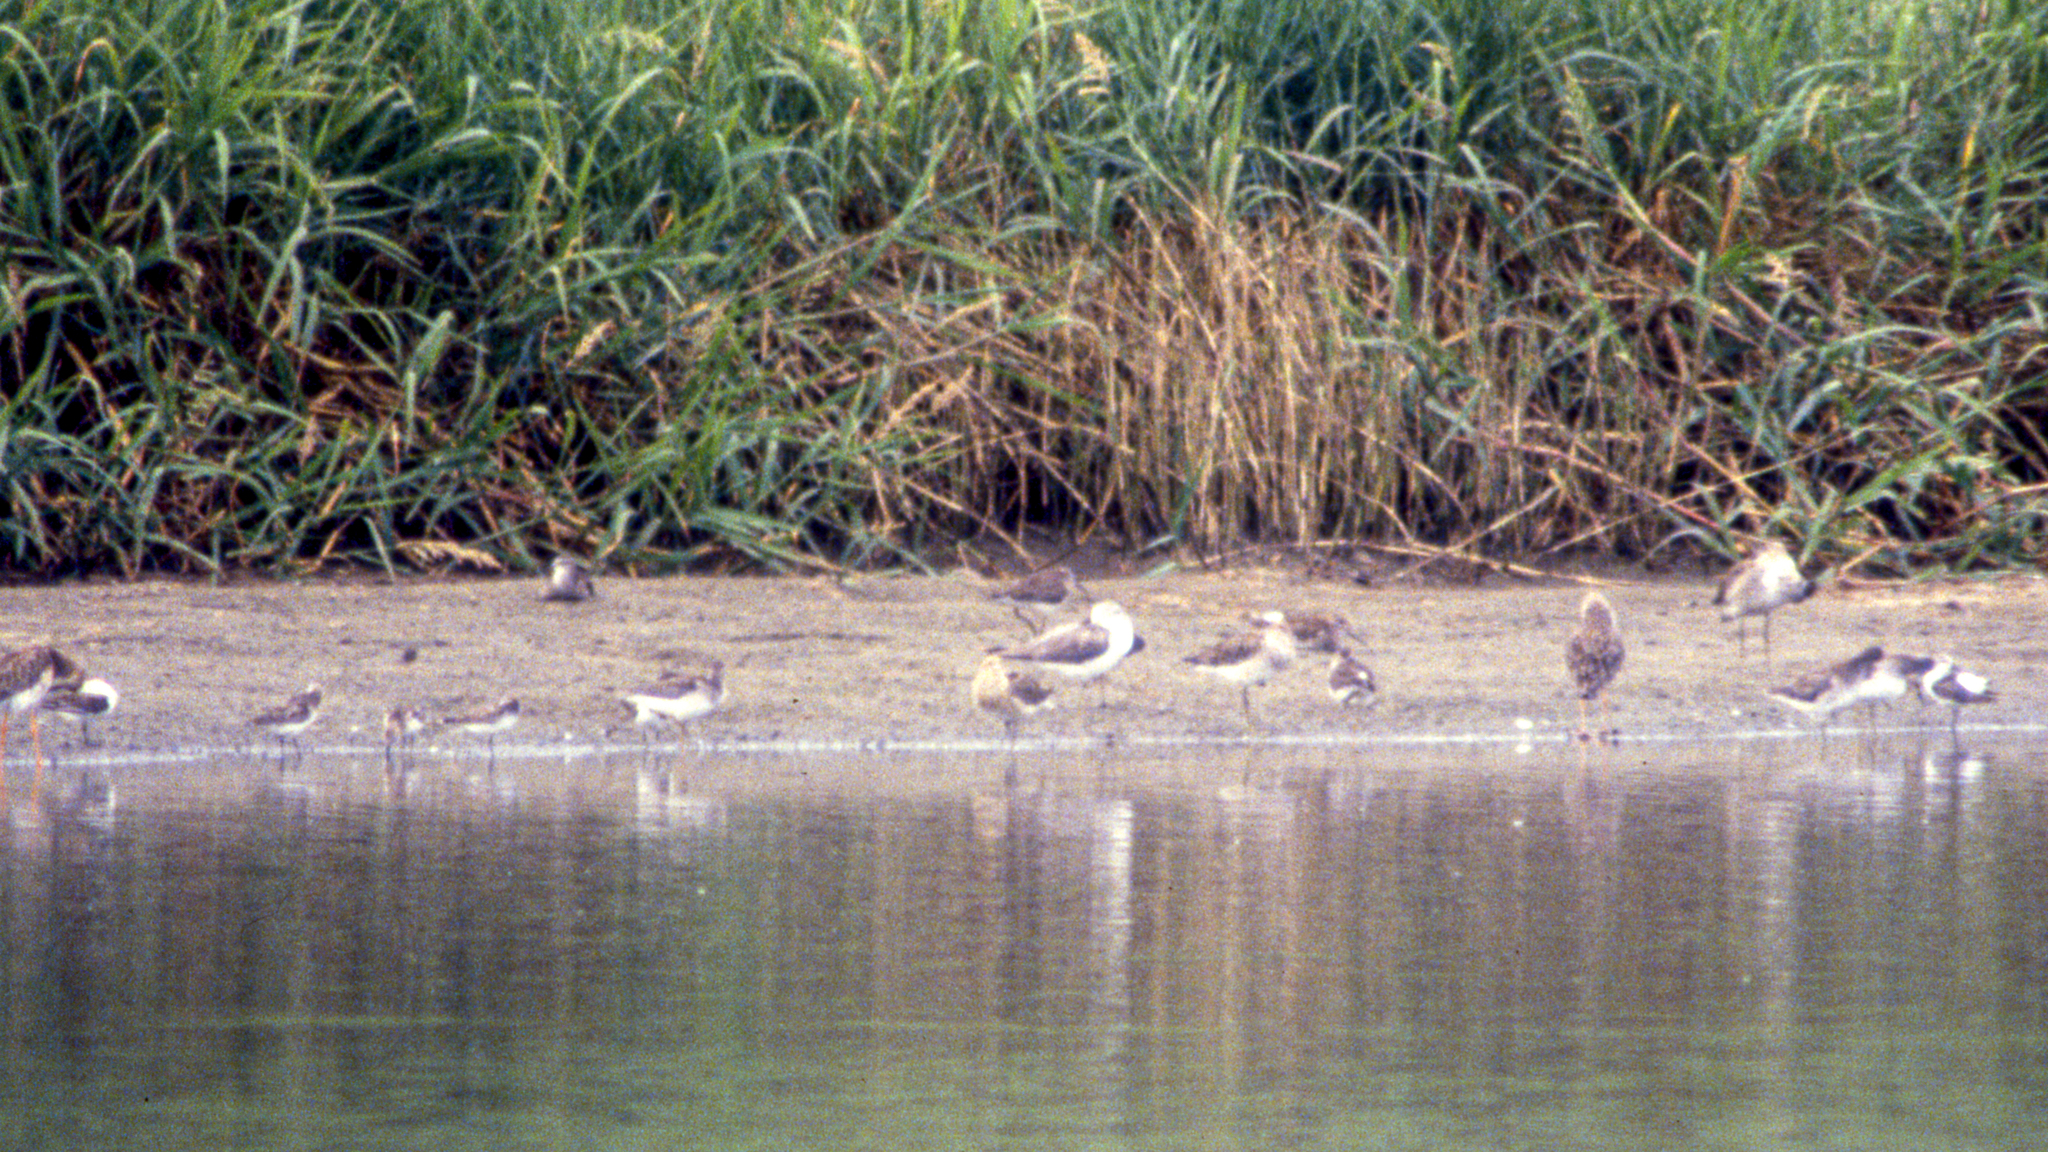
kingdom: Animalia
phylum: Chordata
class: Aves
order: Charadriiformes
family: Scolopacidae
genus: Calidris
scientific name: Calidris pugnax
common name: Ruff
